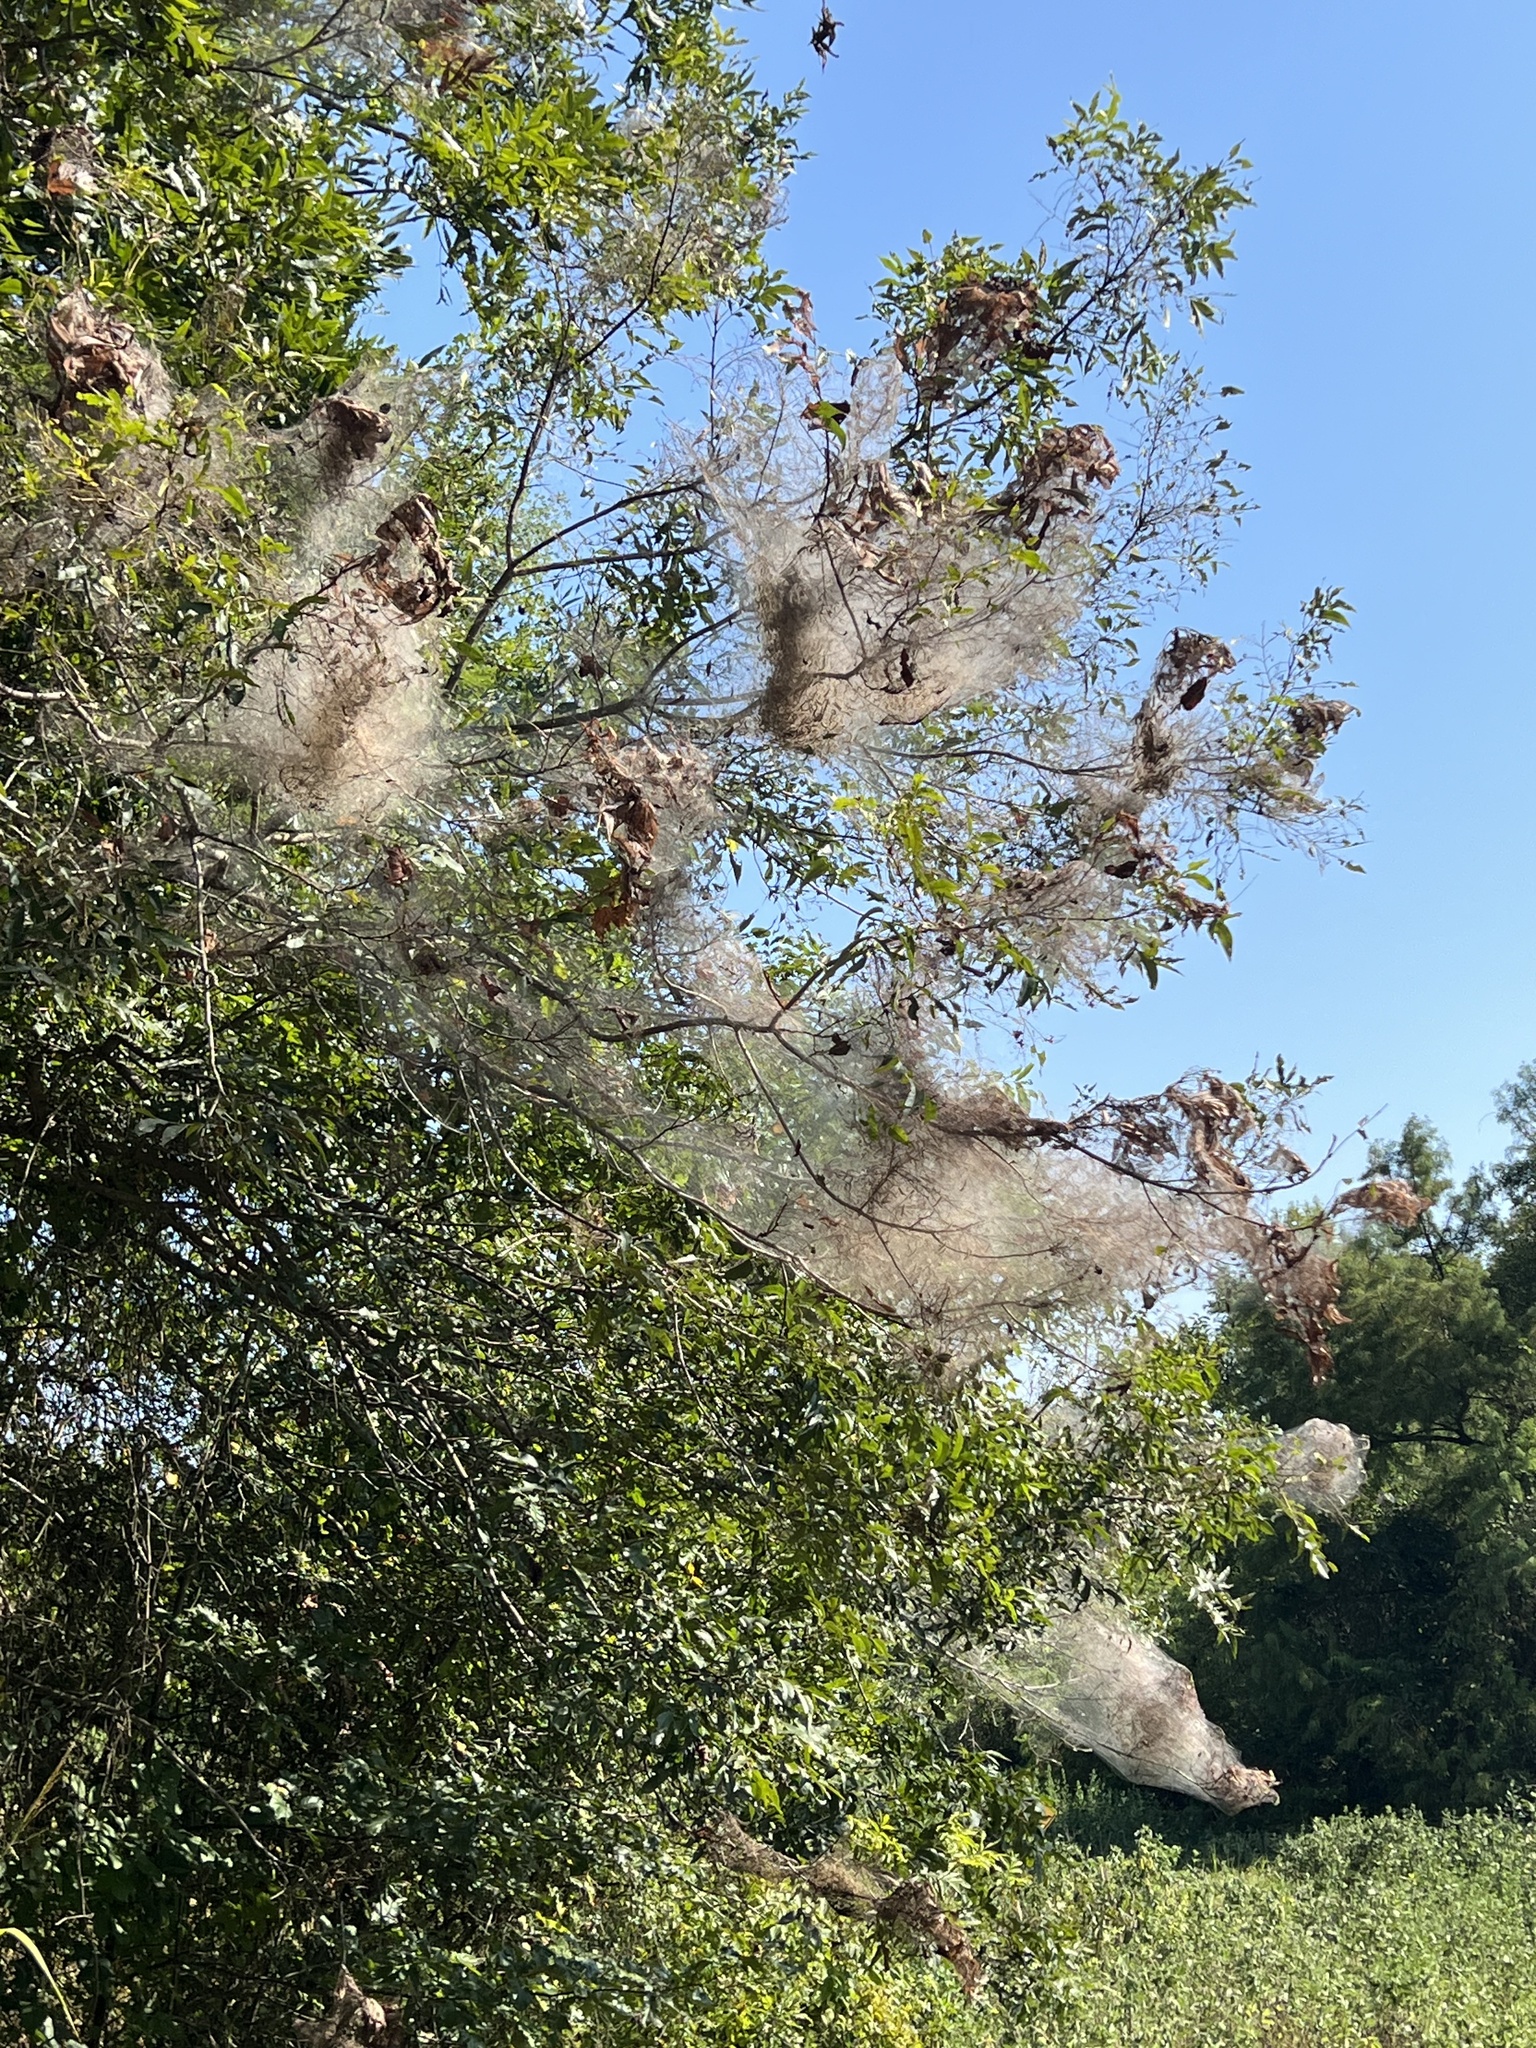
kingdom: Animalia
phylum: Arthropoda
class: Insecta
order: Lepidoptera
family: Erebidae
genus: Hyphantria
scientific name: Hyphantria cunea
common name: American white moth
